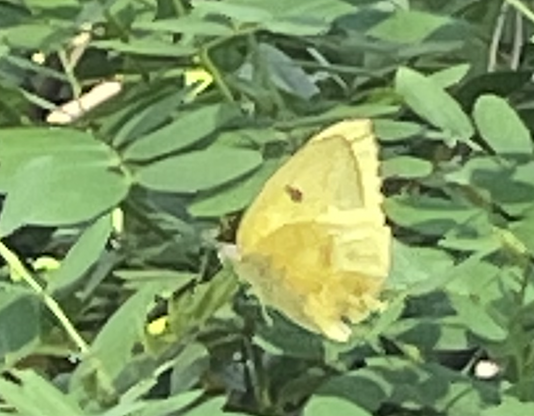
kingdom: Animalia
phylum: Arthropoda
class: Insecta
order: Lepidoptera
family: Pieridae
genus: Phoebis
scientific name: Phoebis philea
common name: Orange-barred giant sulphur
